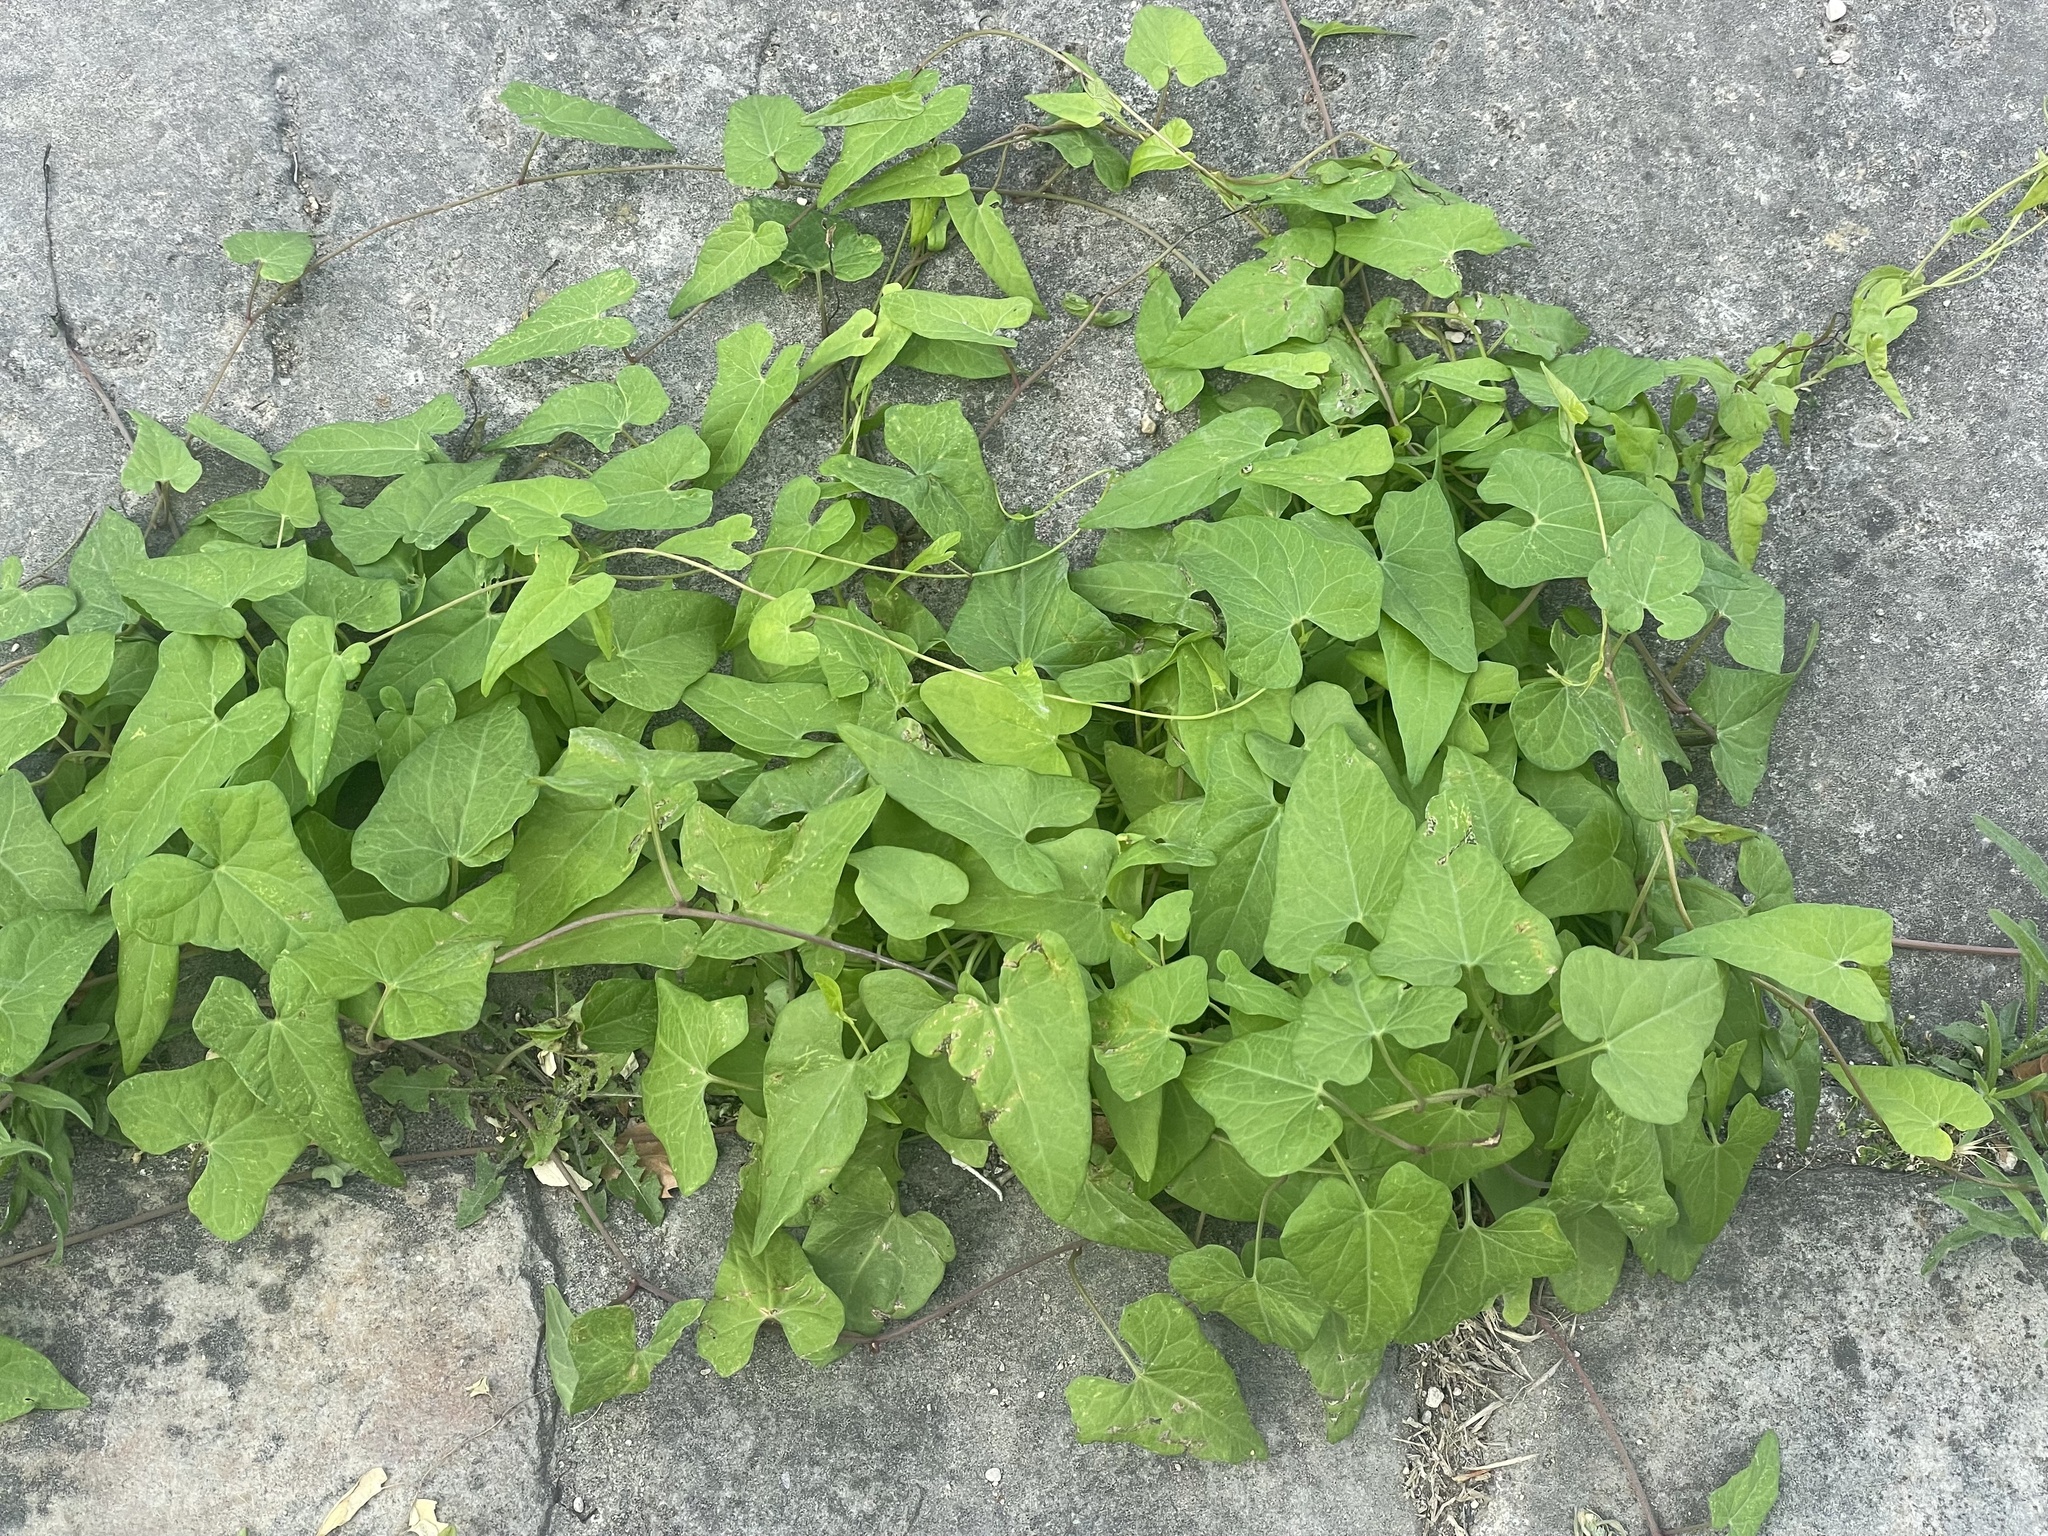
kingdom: Plantae
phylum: Tracheophyta
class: Magnoliopsida
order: Solanales
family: Convolvulaceae
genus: Calystegia
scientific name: Calystegia
